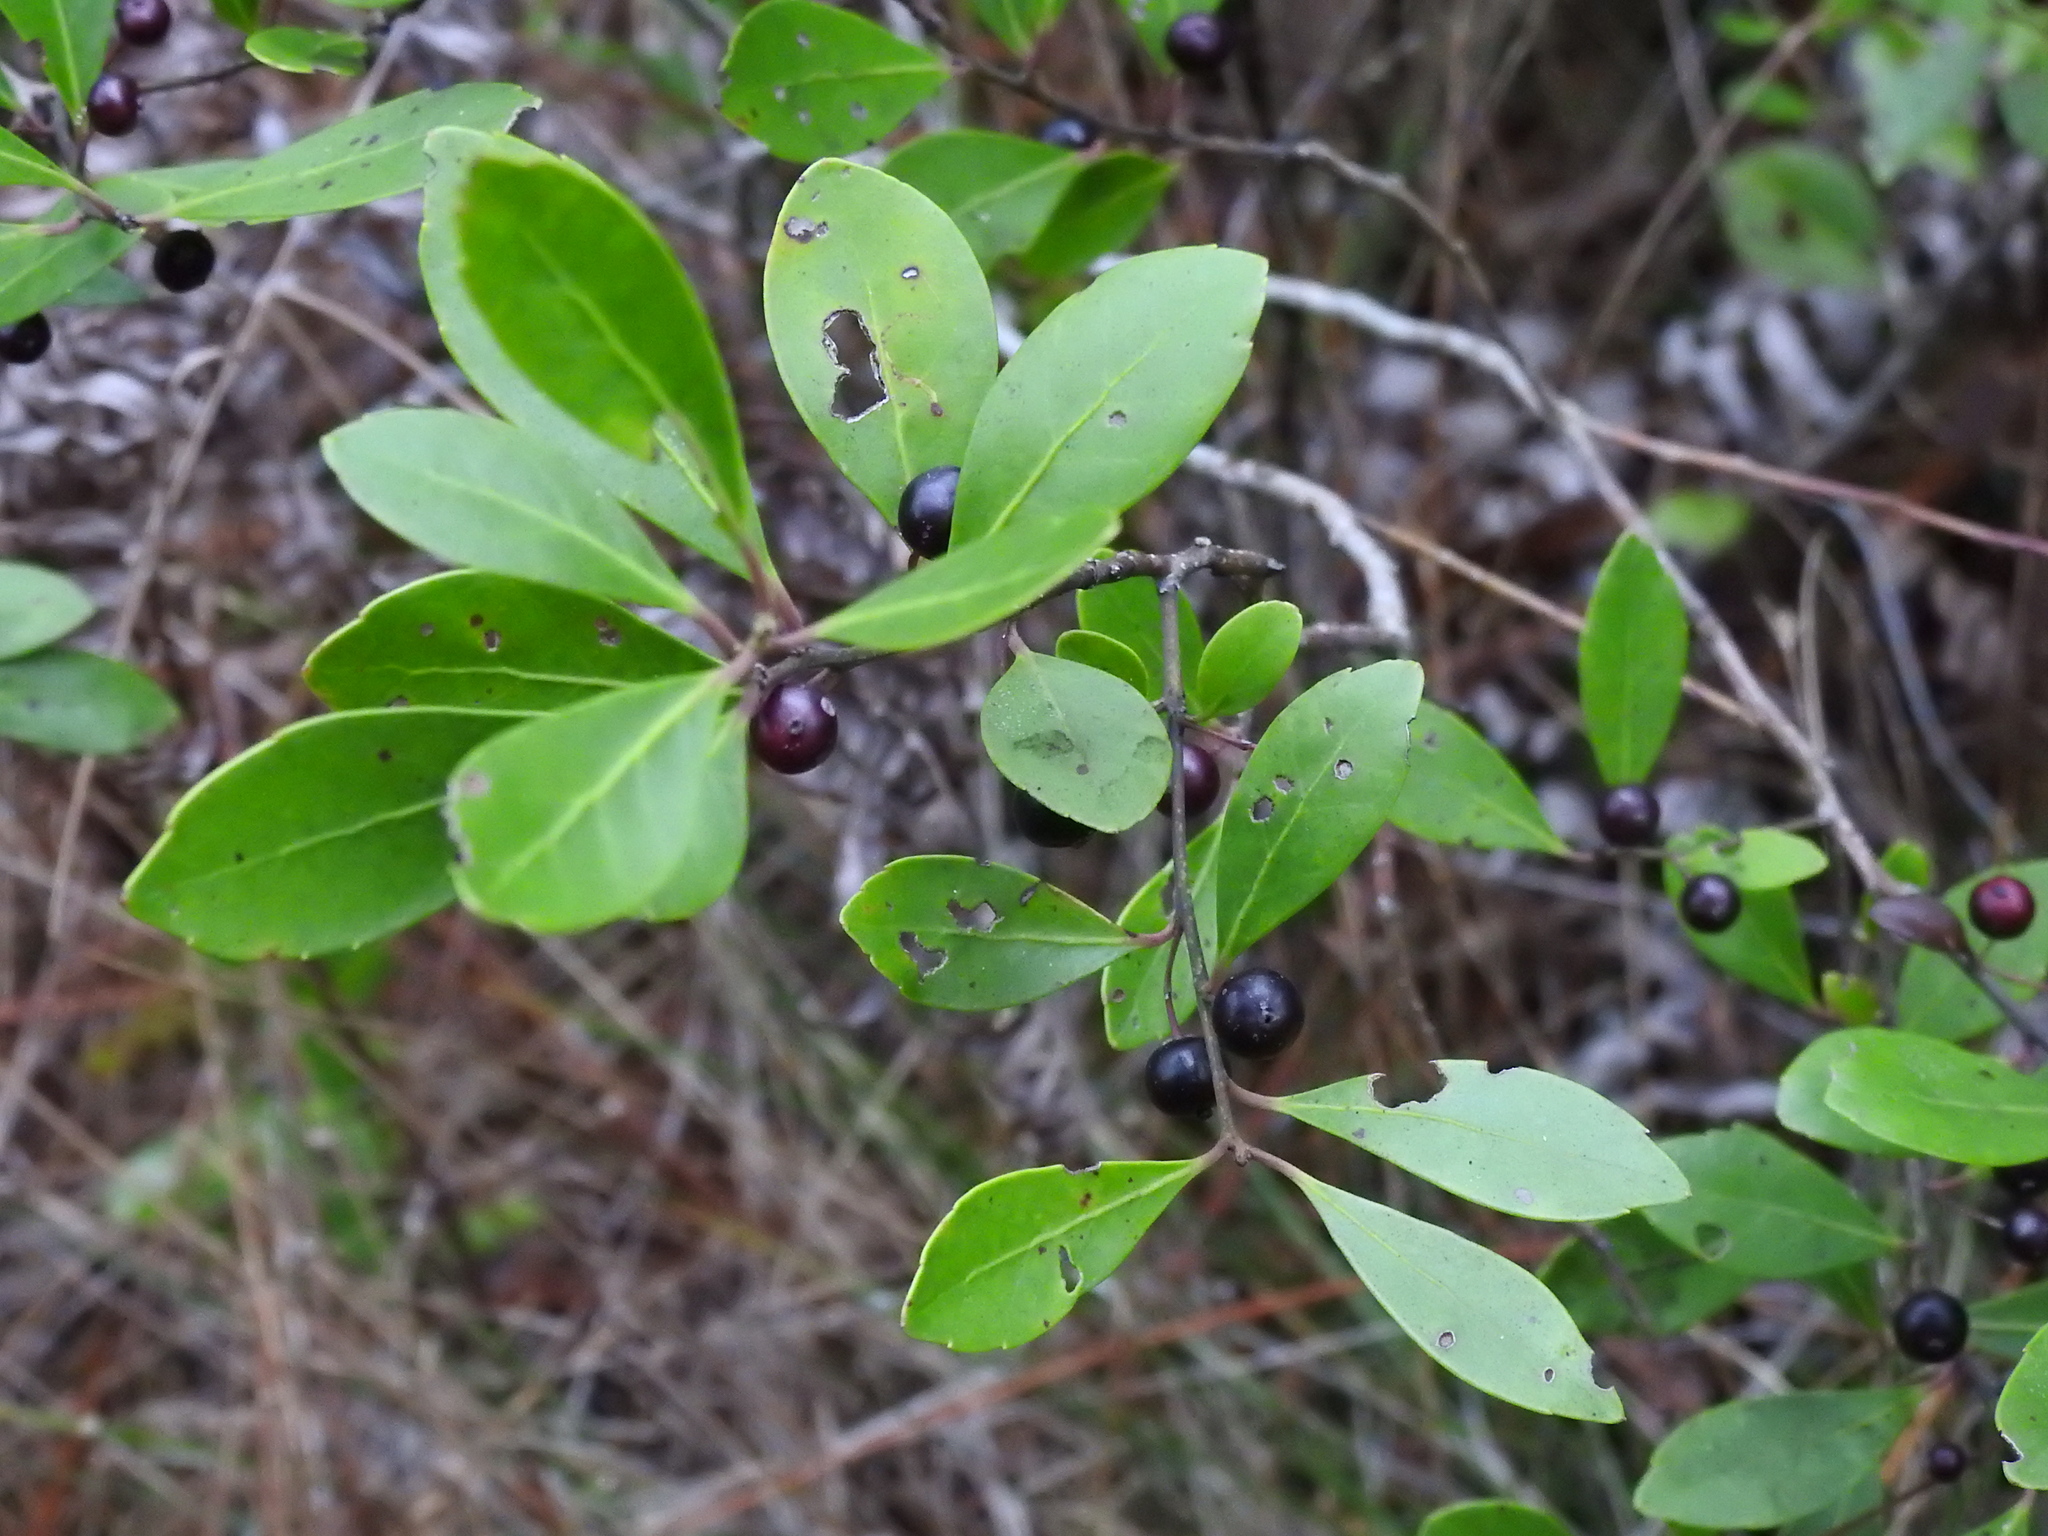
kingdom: Plantae
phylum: Tracheophyta
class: Magnoliopsida
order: Aquifoliales
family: Aquifoliaceae
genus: Ilex
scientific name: Ilex glabra
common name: Bitter gallberry
